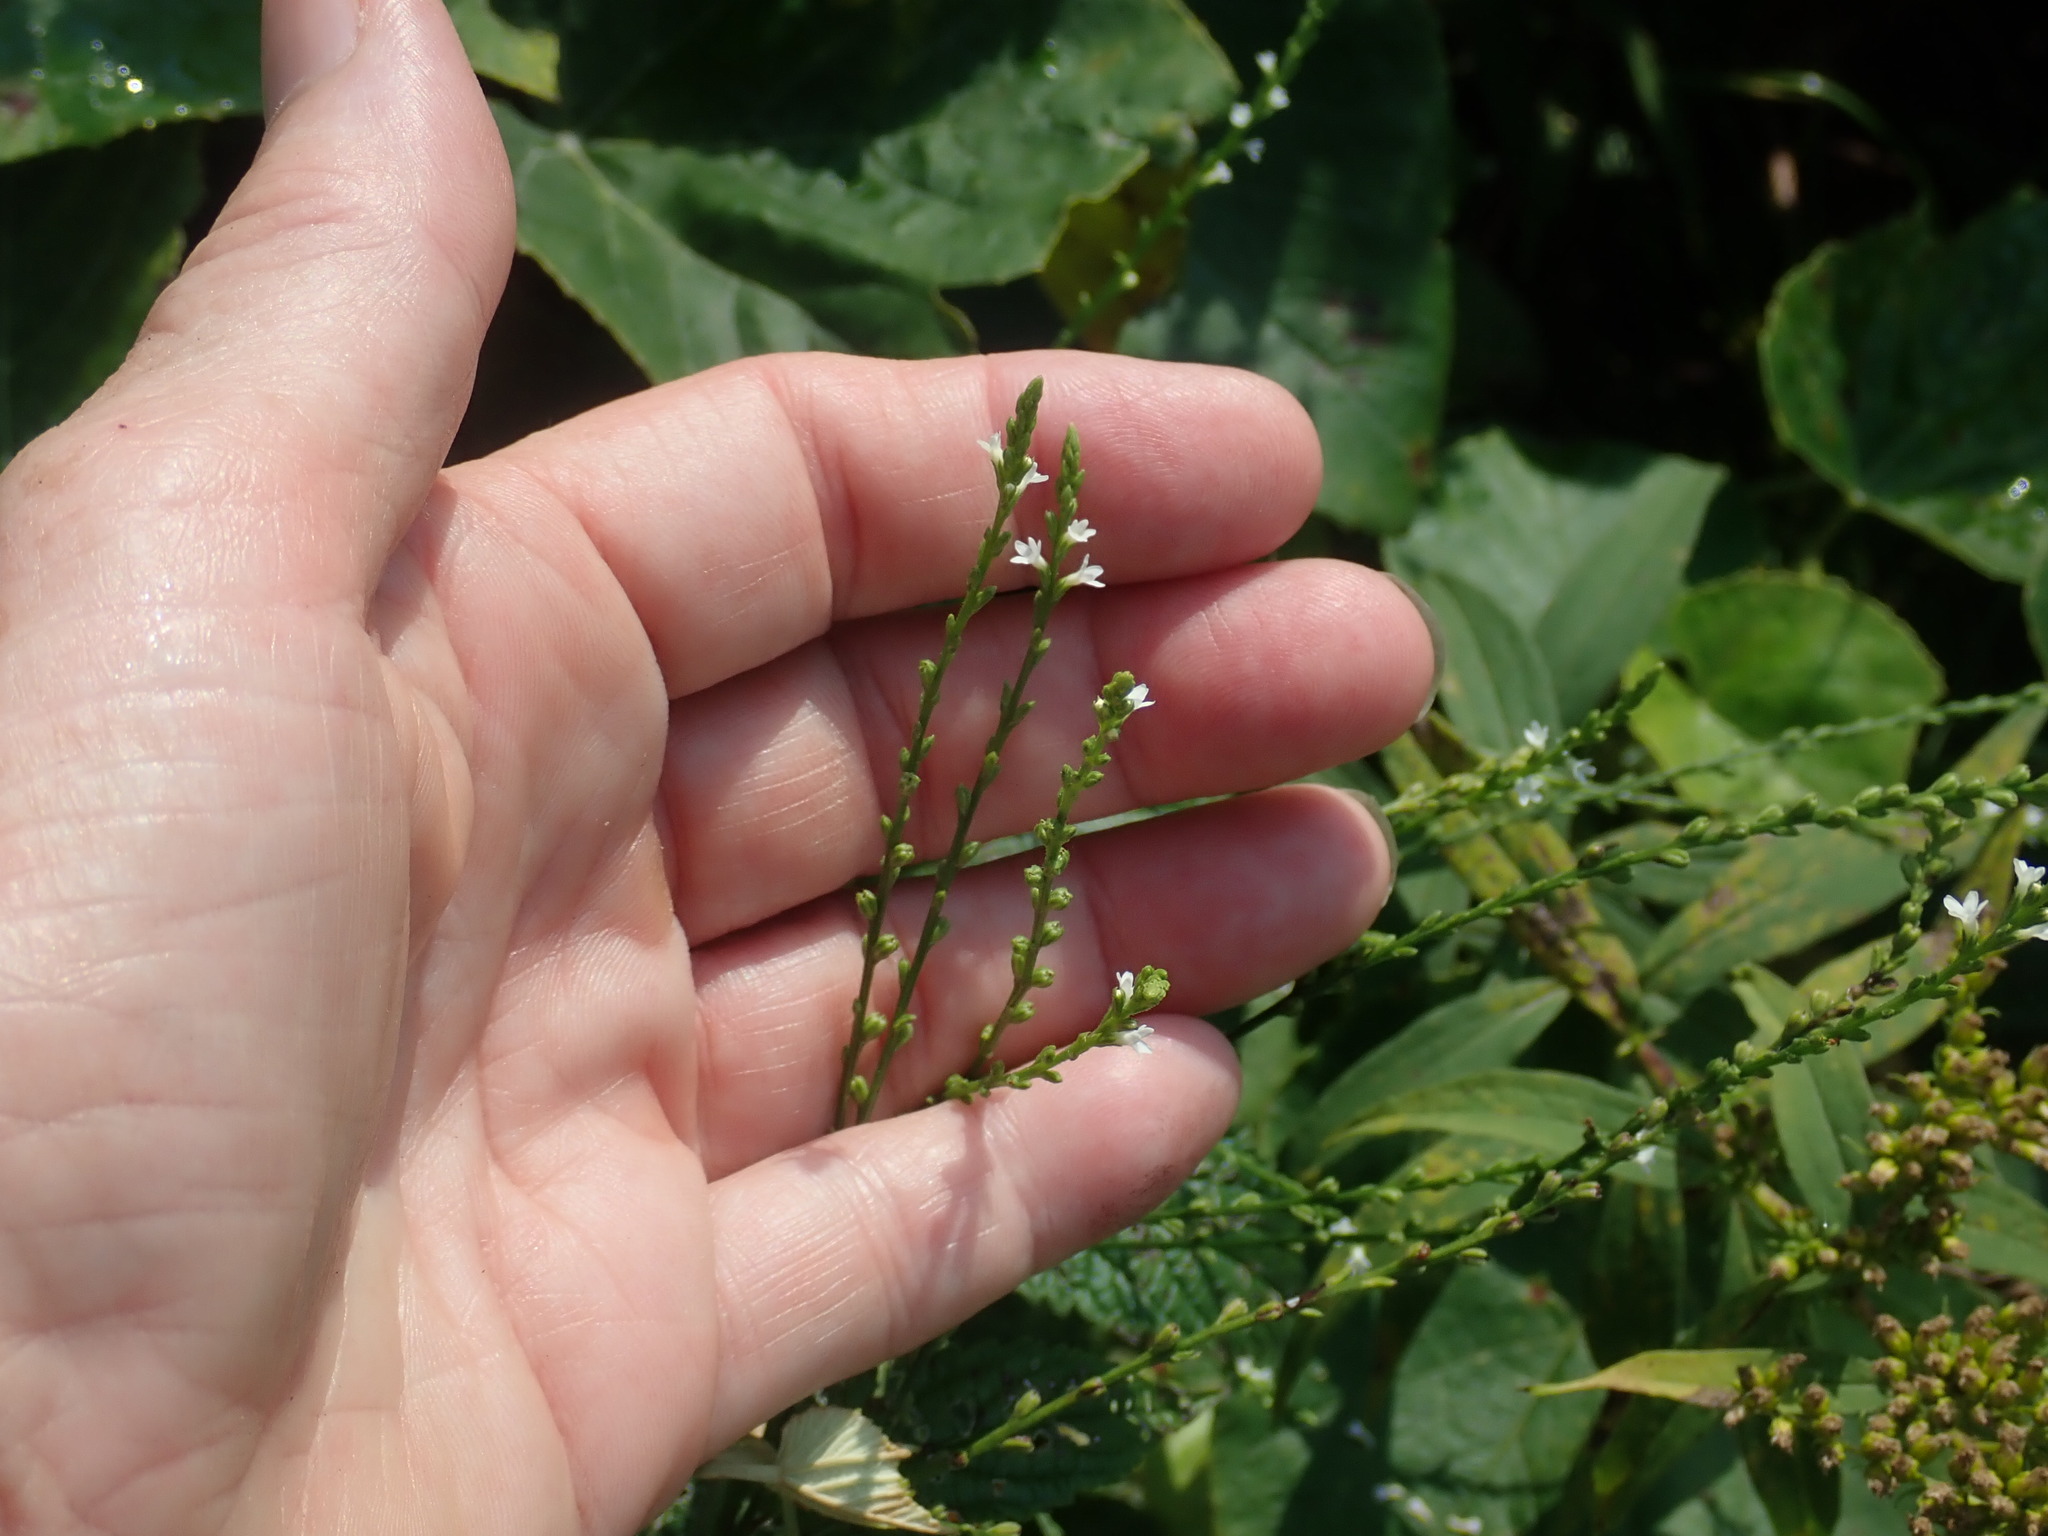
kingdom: Plantae
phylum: Tracheophyta
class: Magnoliopsida
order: Lamiales
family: Verbenaceae
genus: Verbena
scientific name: Verbena urticifolia
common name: Nettle-leaved vervain
